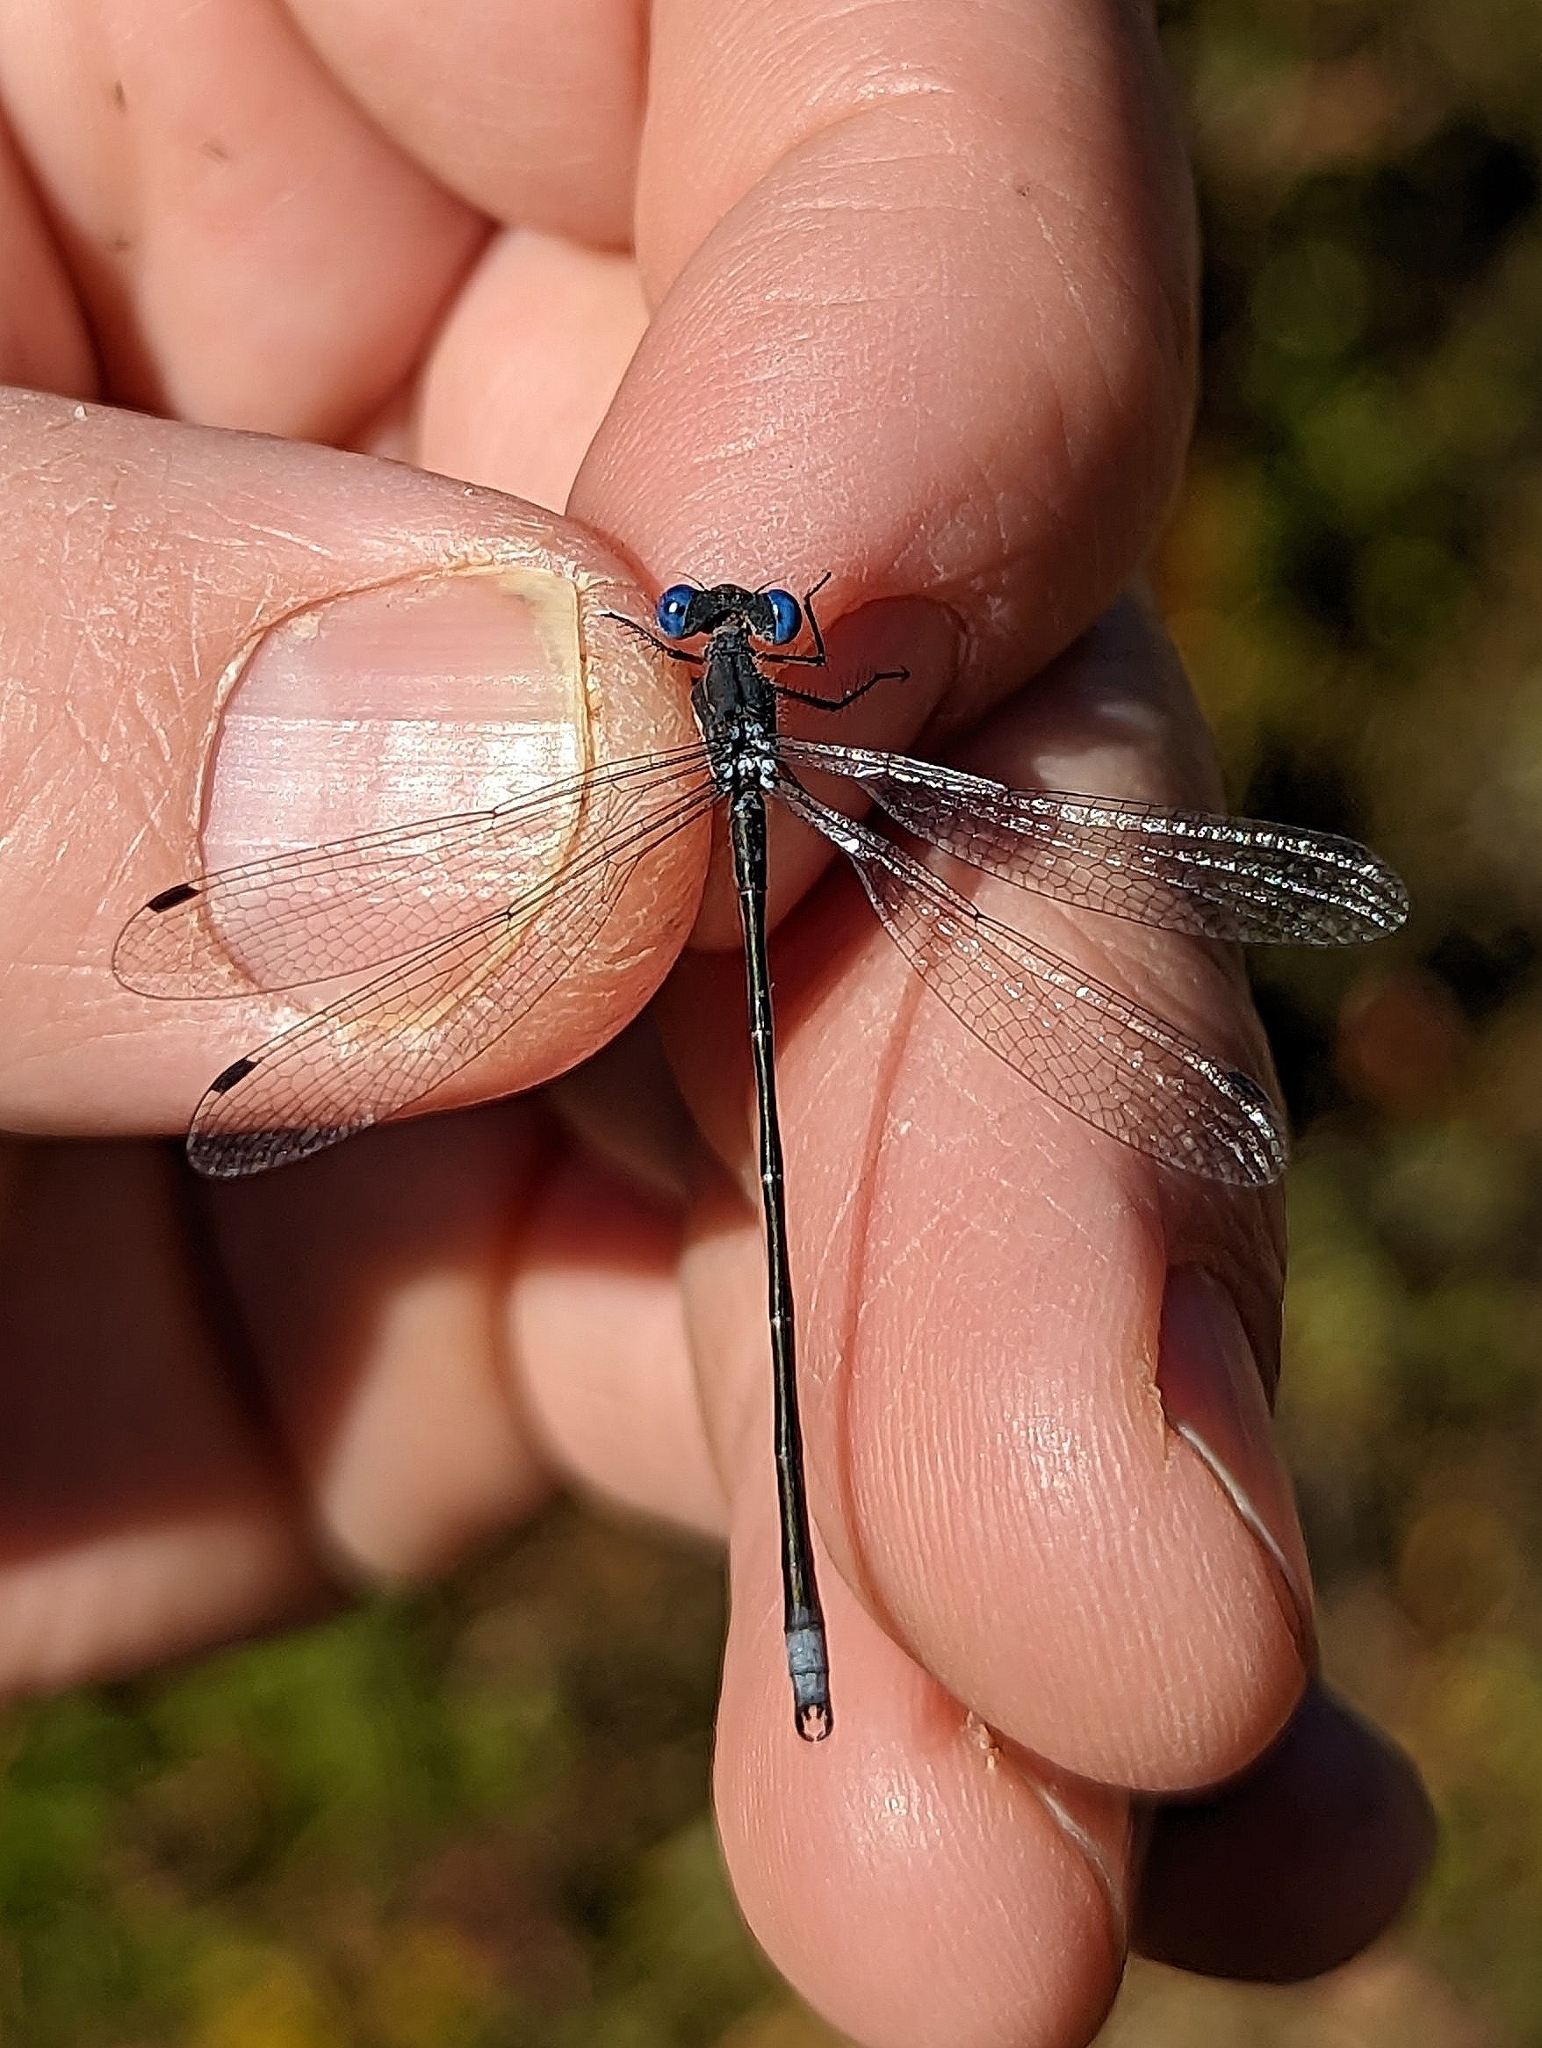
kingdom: Animalia
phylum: Arthropoda
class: Insecta
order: Odonata
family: Lestidae
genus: Lestes
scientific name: Lestes congener
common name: Spotted spreadwing
